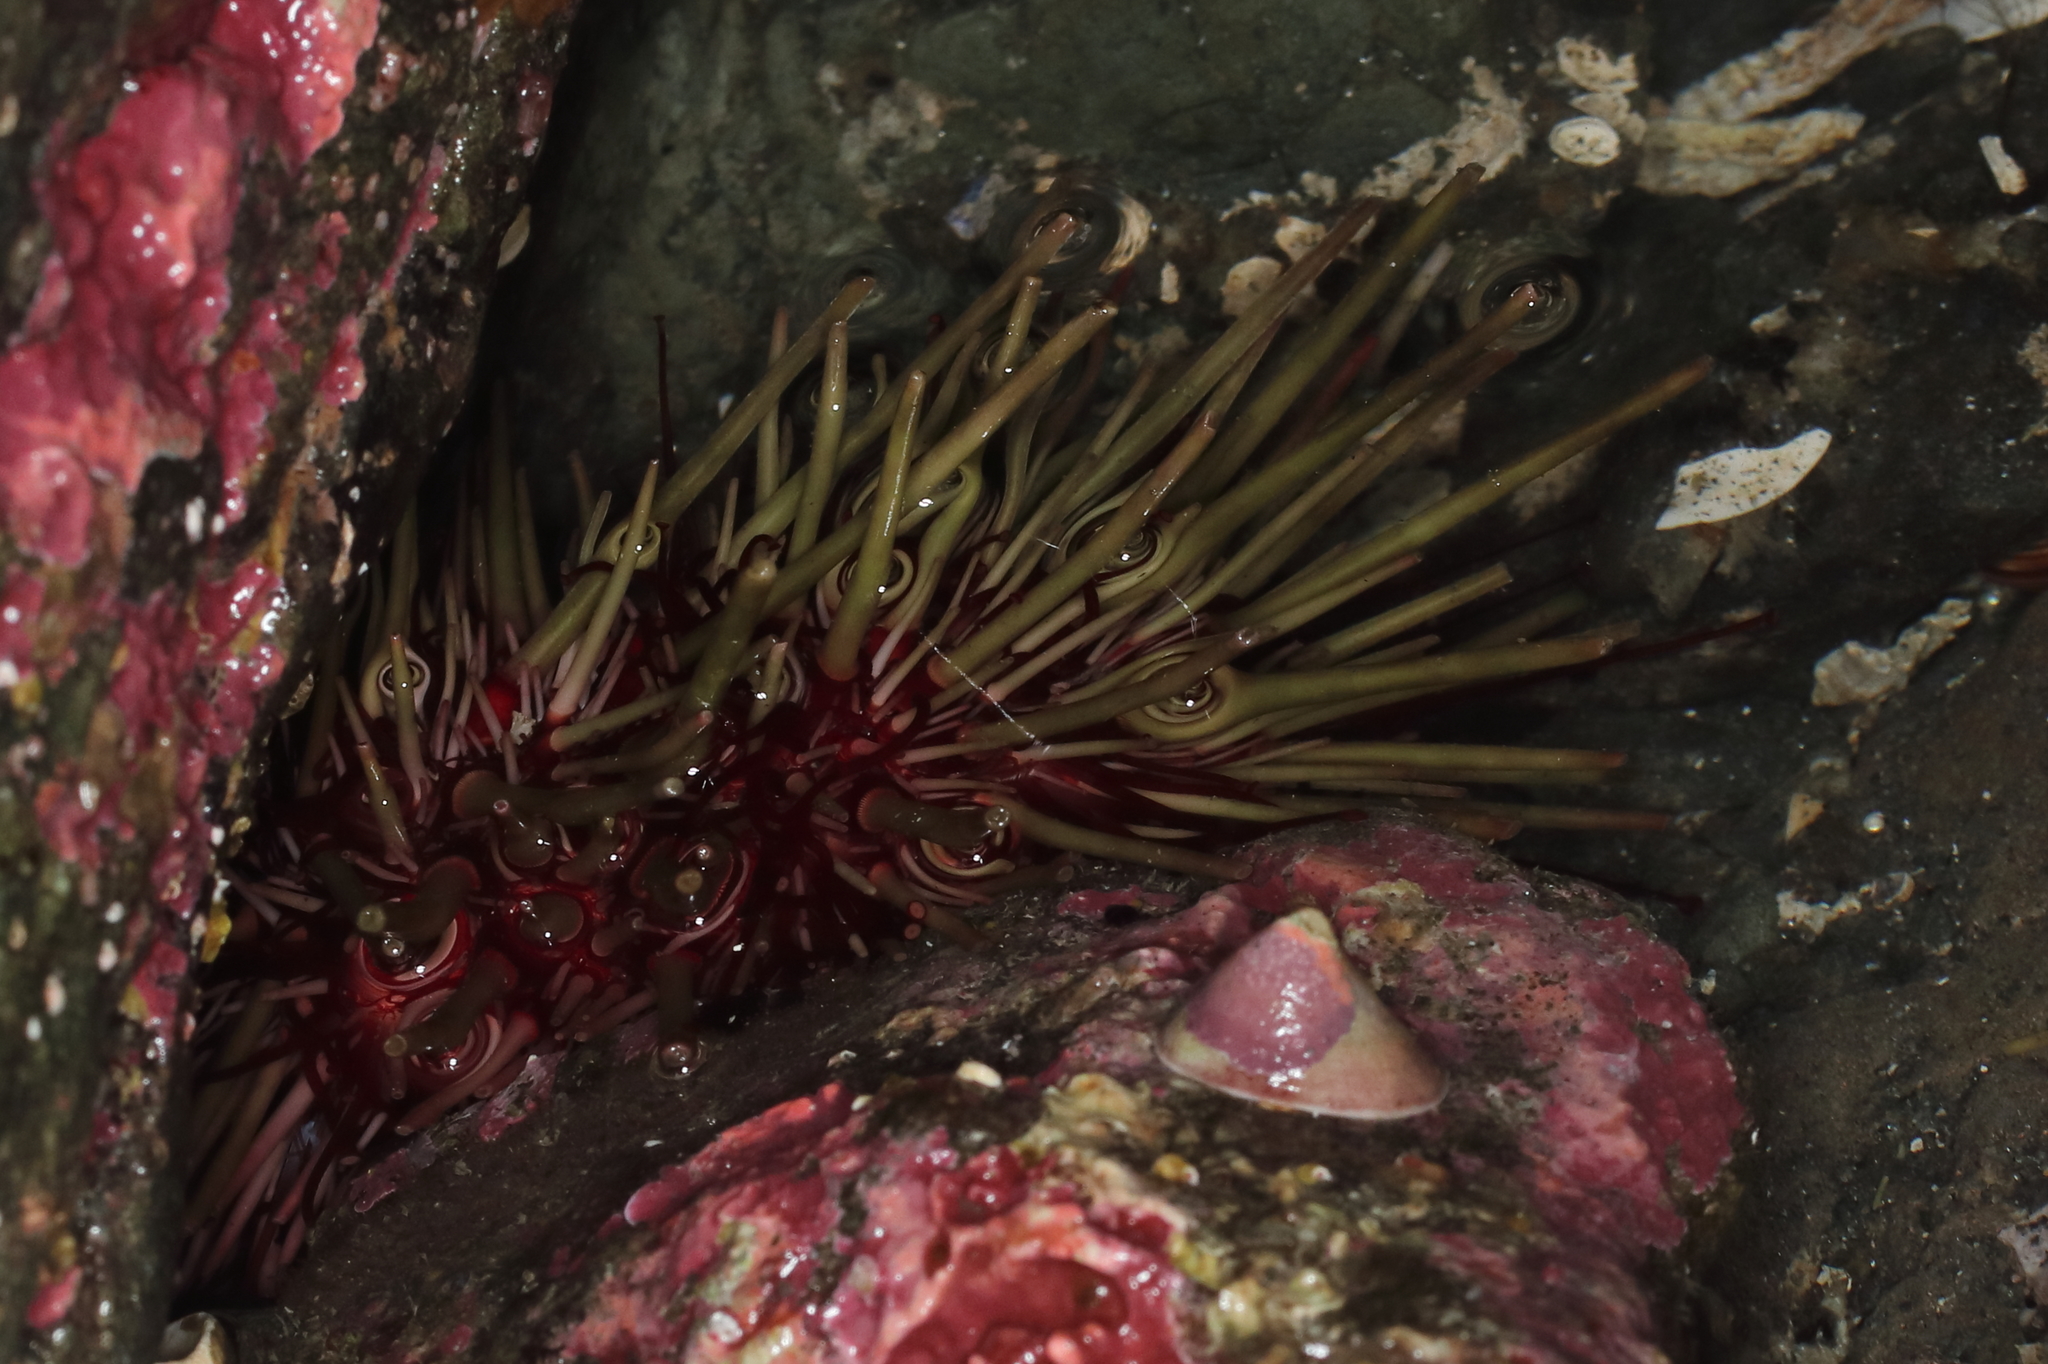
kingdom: Animalia
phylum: Echinodermata
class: Echinoidea
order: Camarodonta
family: Strongylocentrotidae
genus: Mesocentrotus
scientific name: Mesocentrotus franciscanus
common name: Red sea urchin
